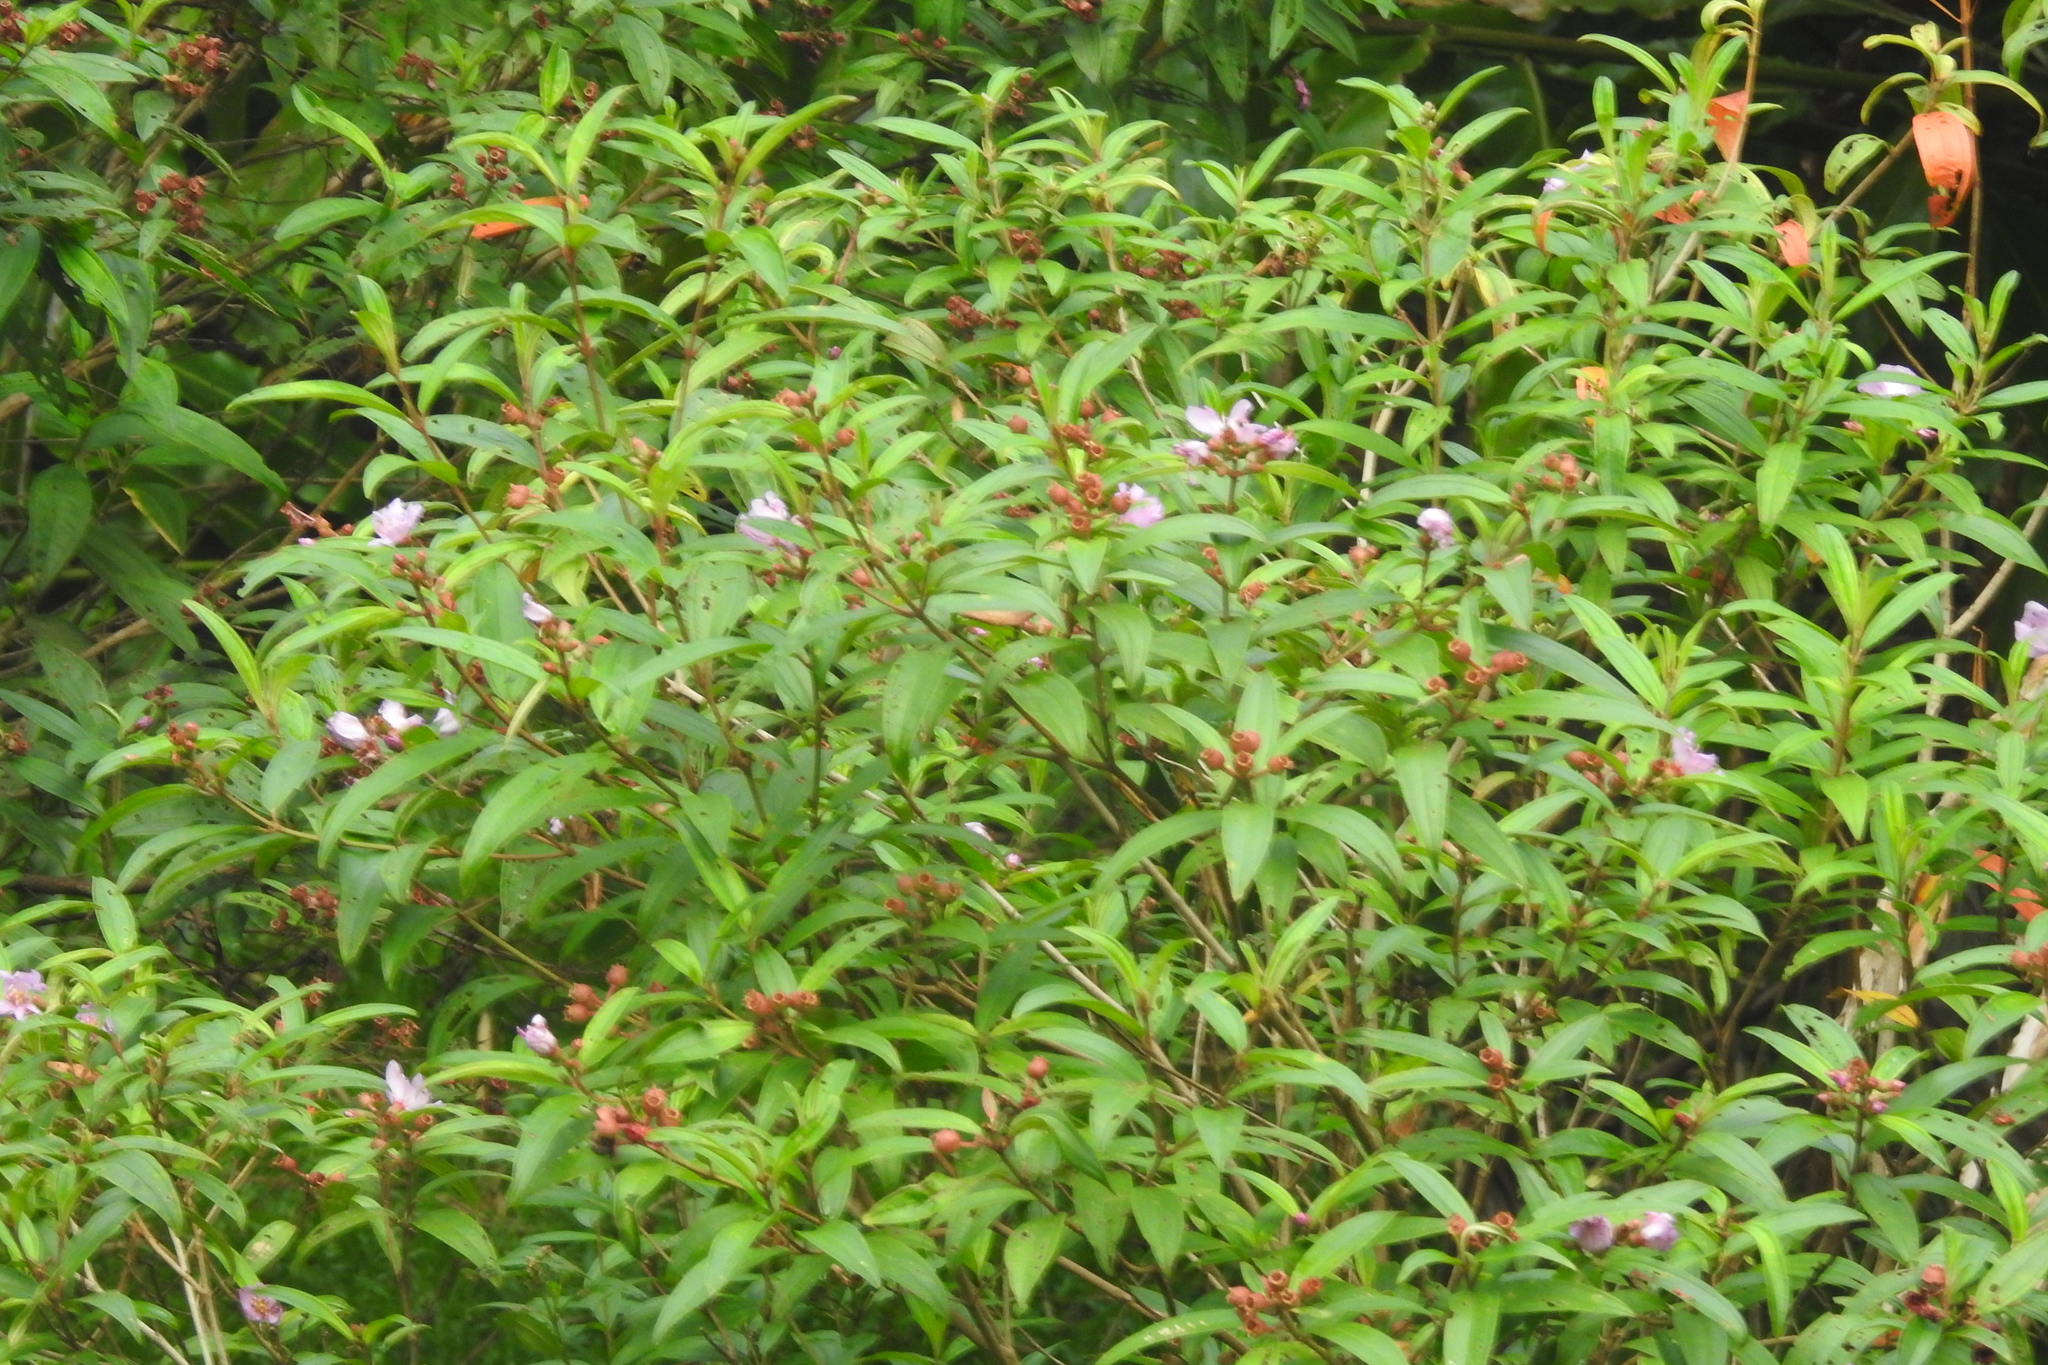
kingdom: Plantae
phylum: Tracheophyta
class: Magnoliopsida
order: Myrtales
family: Melastomataceae
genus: Melastoma
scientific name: Melastoma malabathricum
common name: Indian-rhododendron
